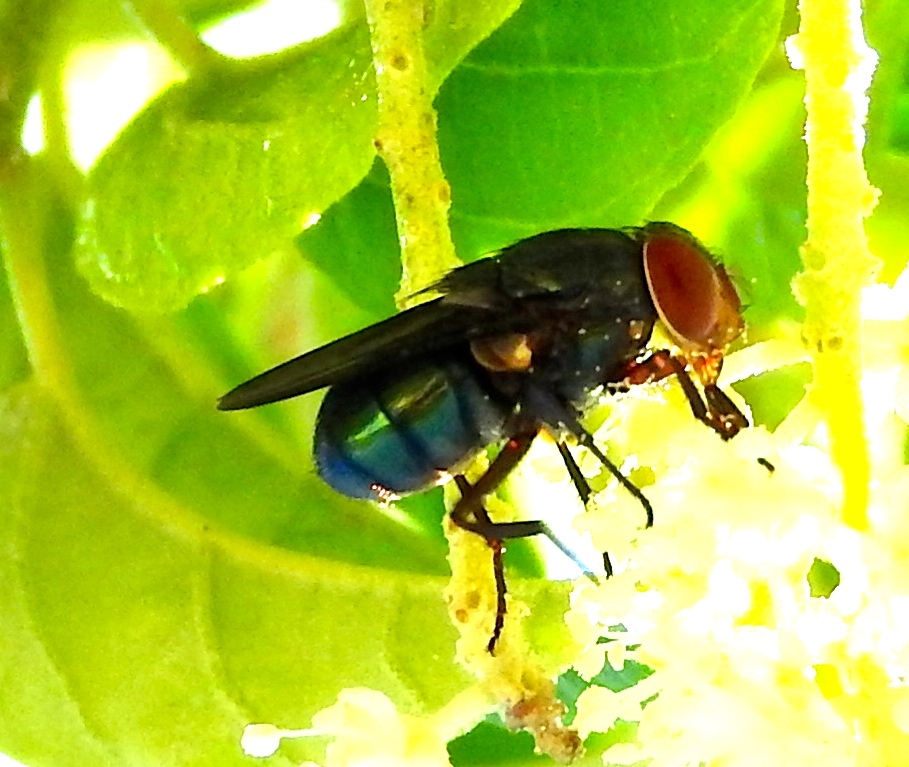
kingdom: Animalia
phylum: Arthropoda
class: Insecta
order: Diptera
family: Calliphoridae
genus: Chloroprocta
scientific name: Chloroprocta idioidea
